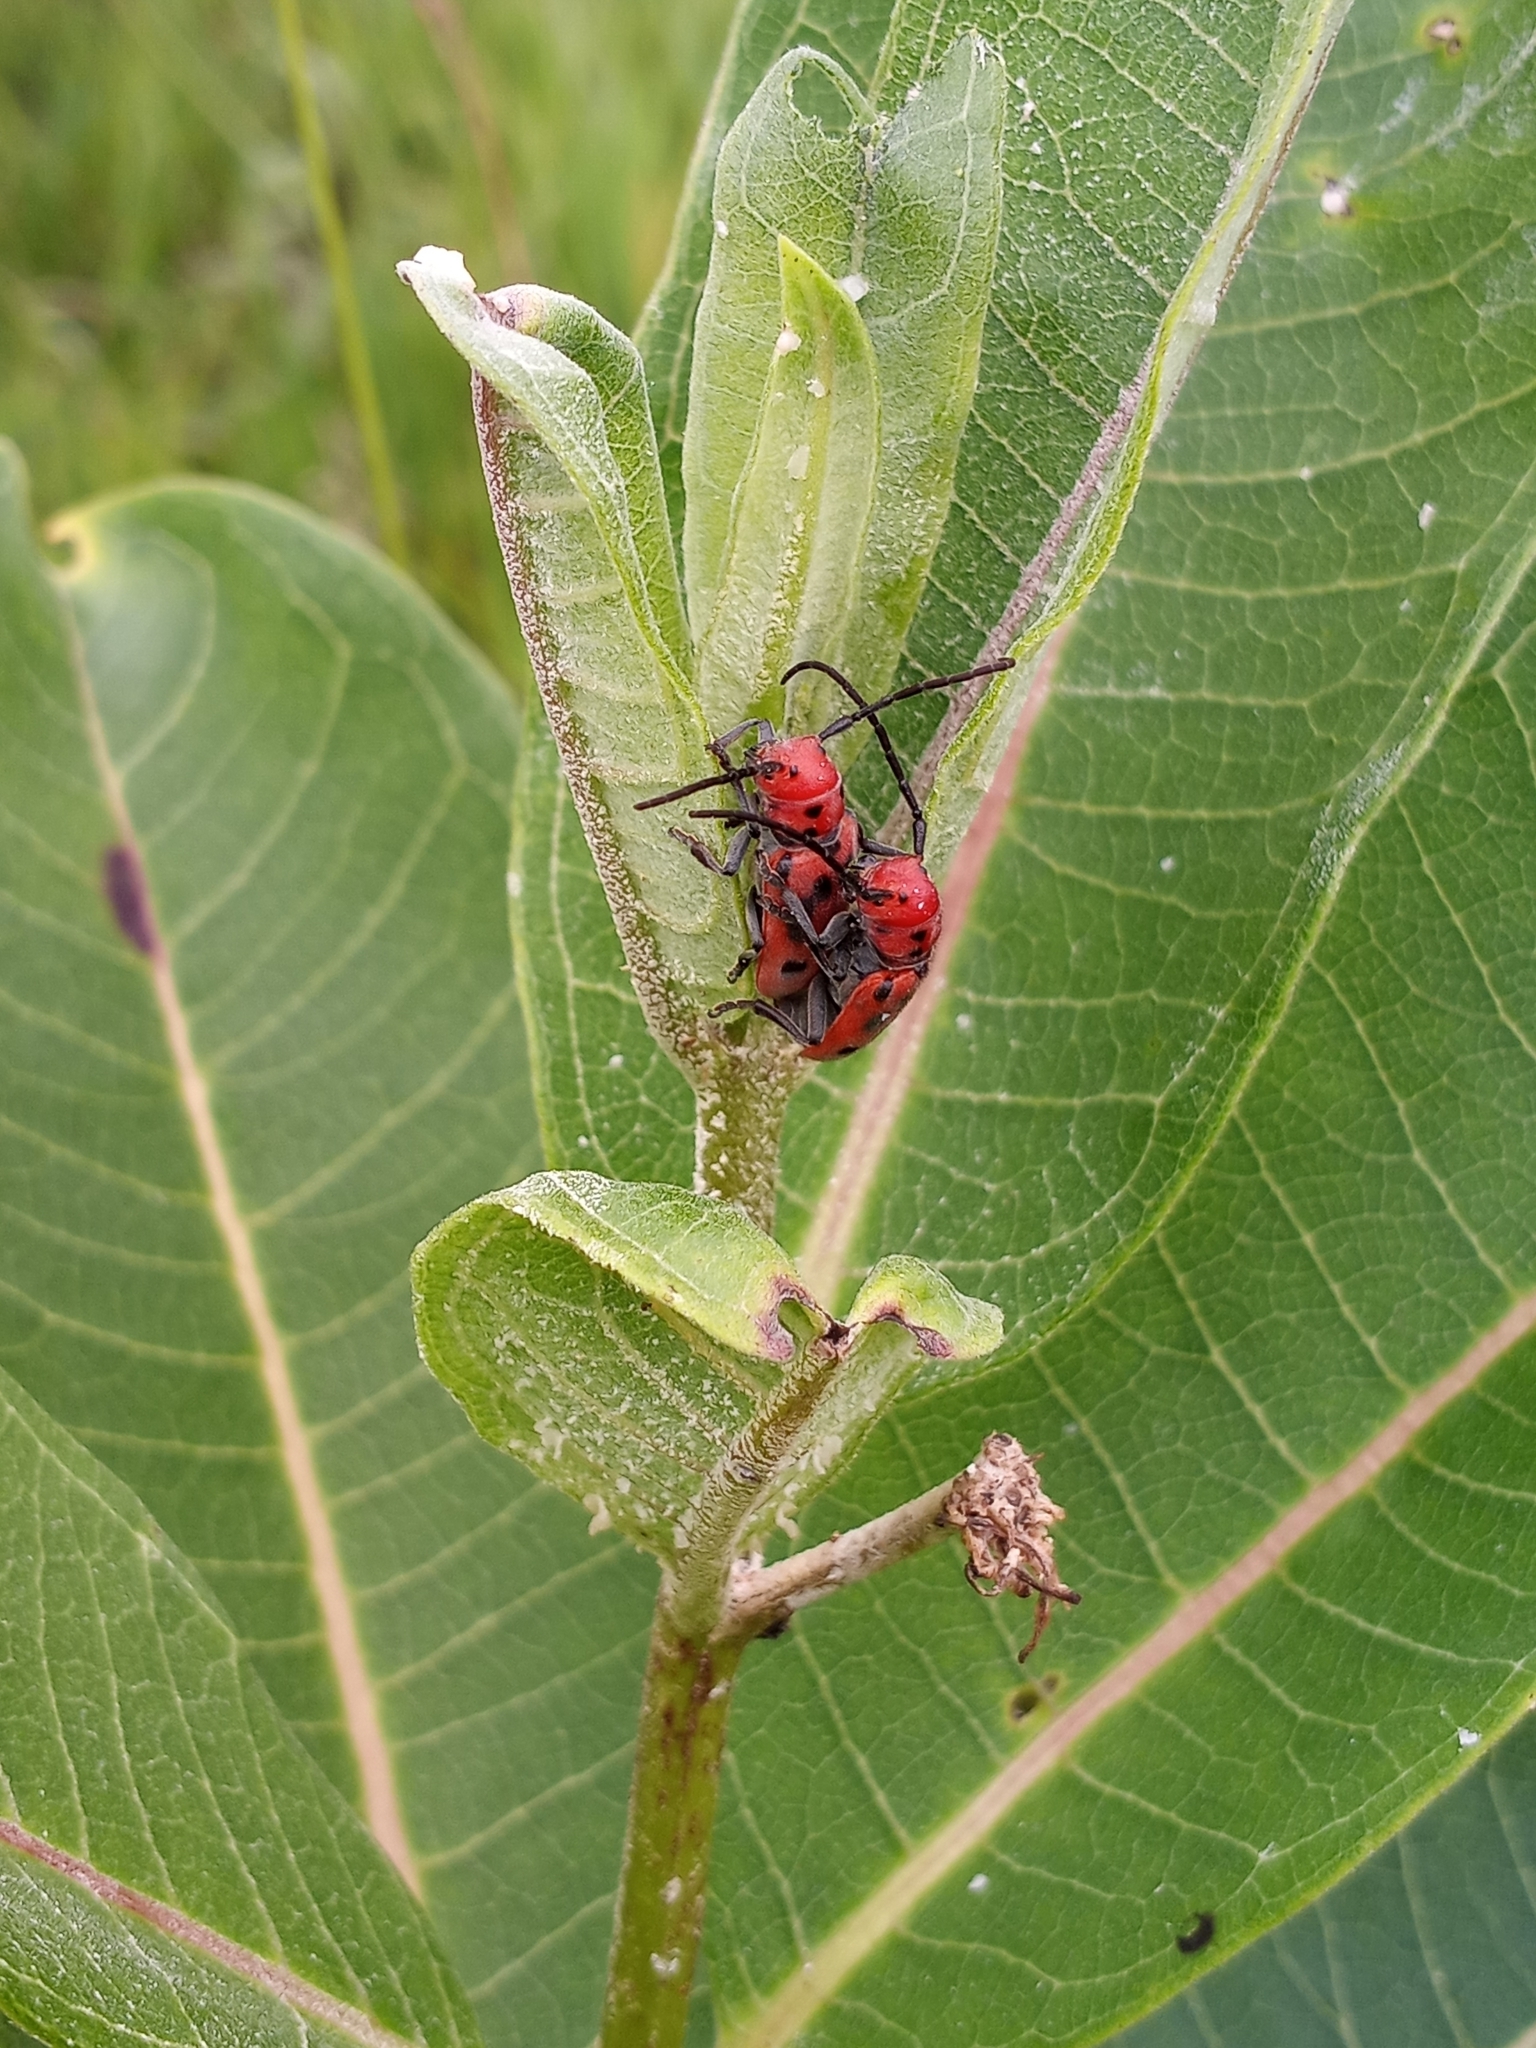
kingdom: Animalia
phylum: Arthropoda
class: Insecta
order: Coleoptera
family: Cerambycidae
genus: Tetraopes
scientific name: Tetraopes tetrophthalmus
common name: Red milkweed beetle
